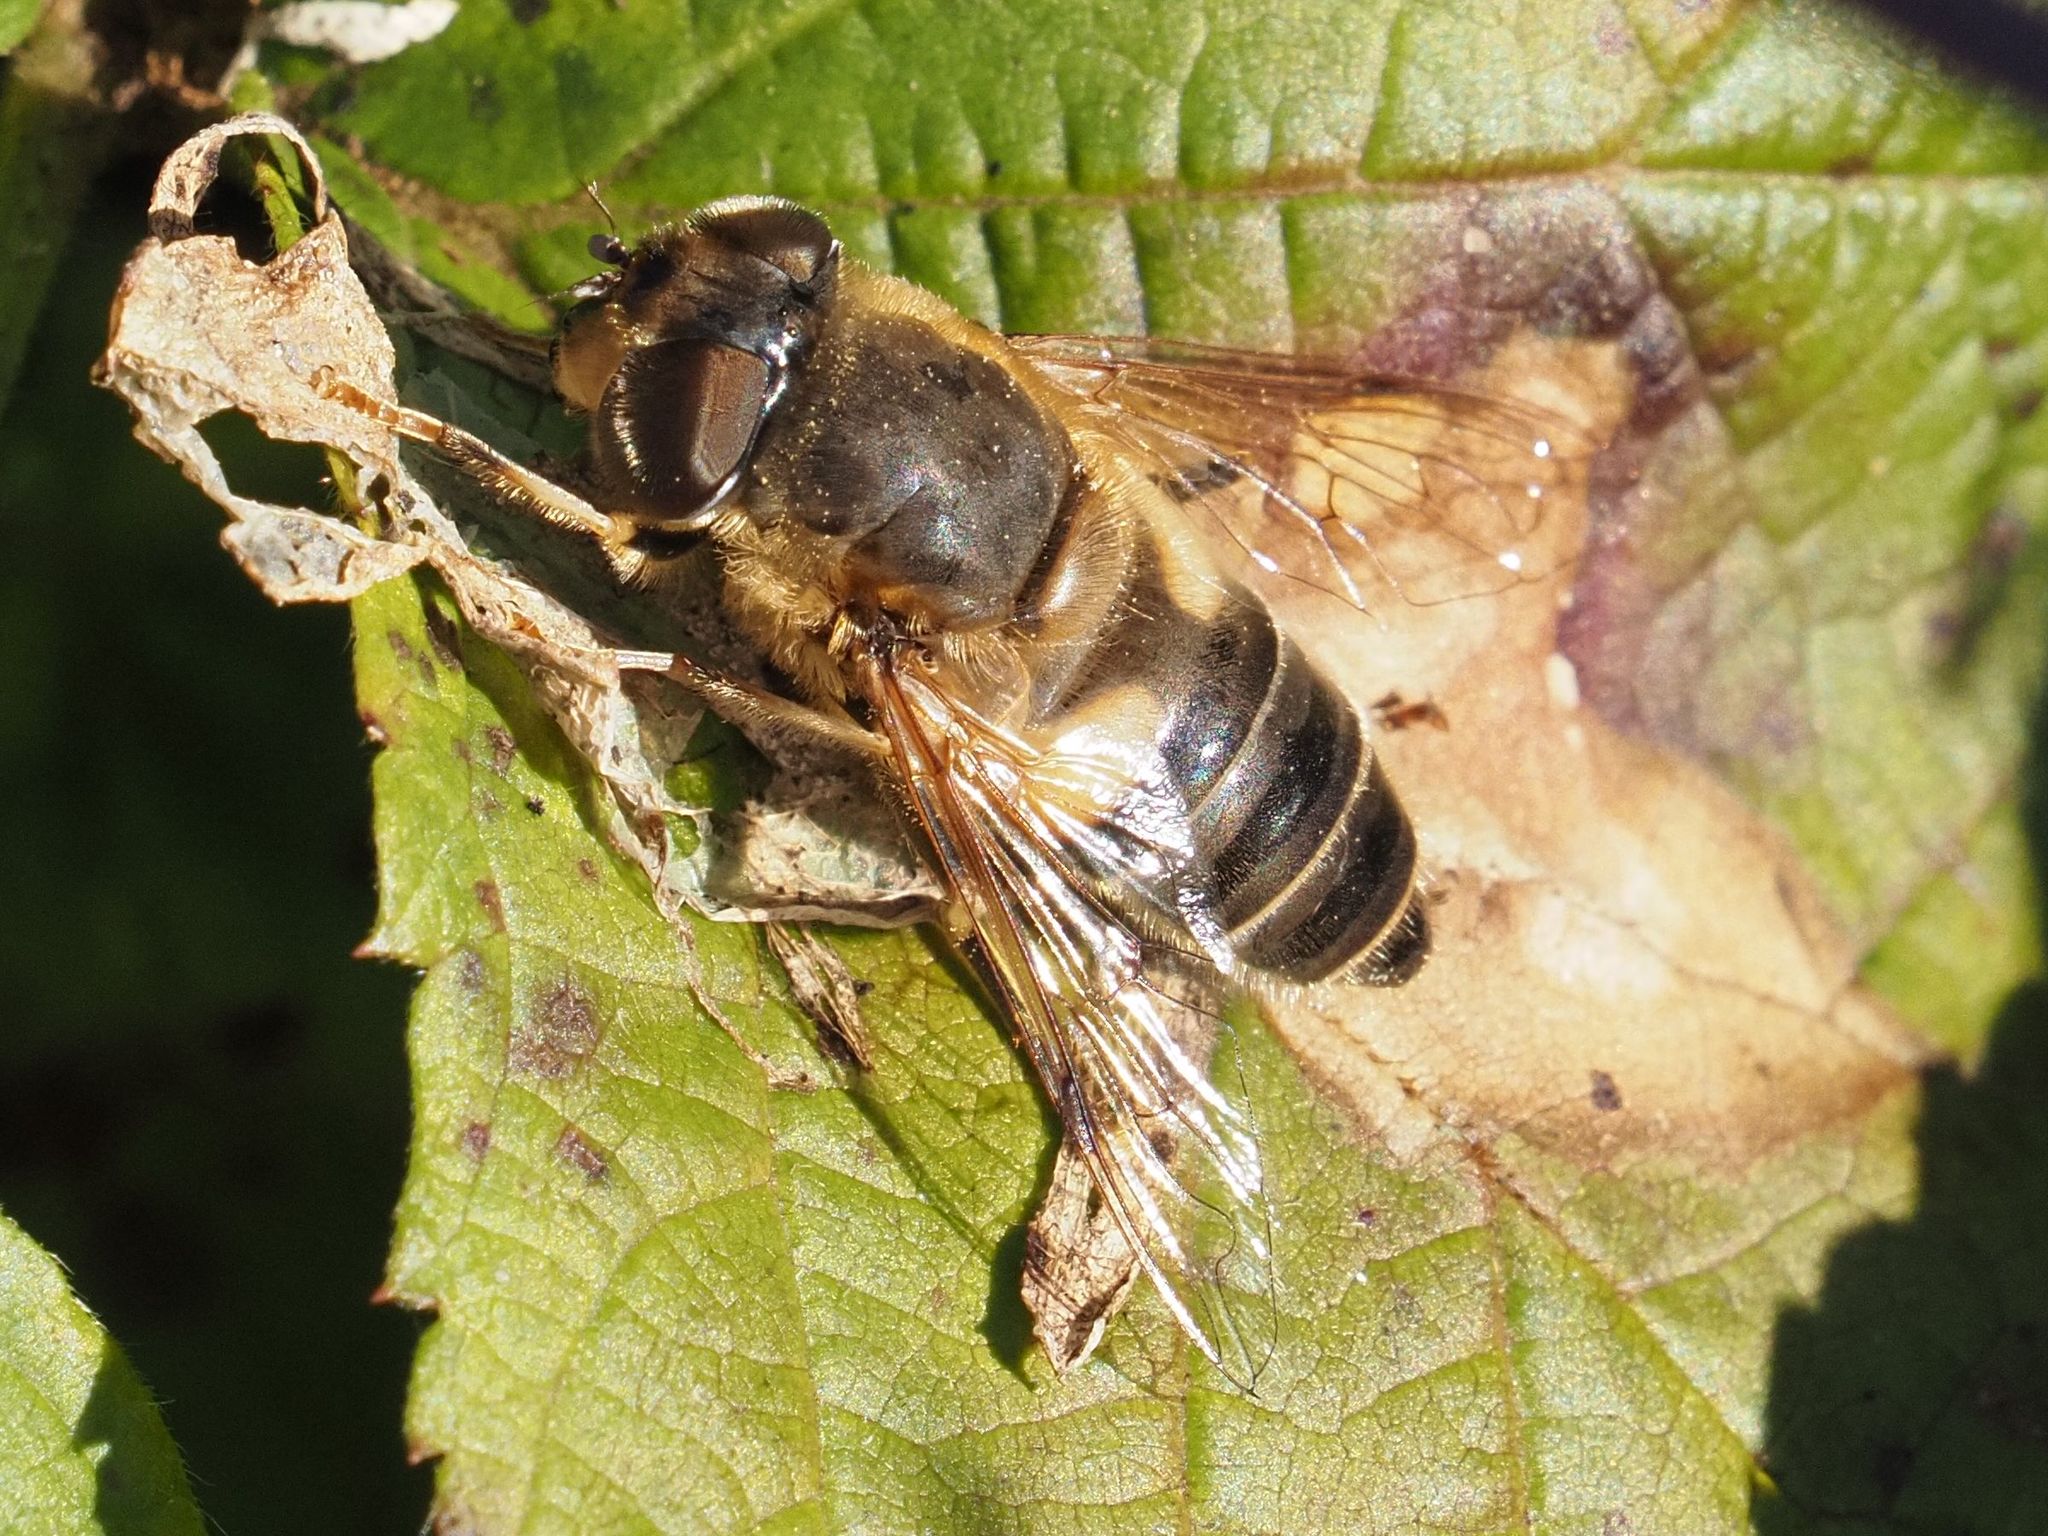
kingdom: Animalia
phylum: Arthropoda
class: Insecta
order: Diptera
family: Syrphidae
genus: Eristalis
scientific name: Eristalis pertinax
